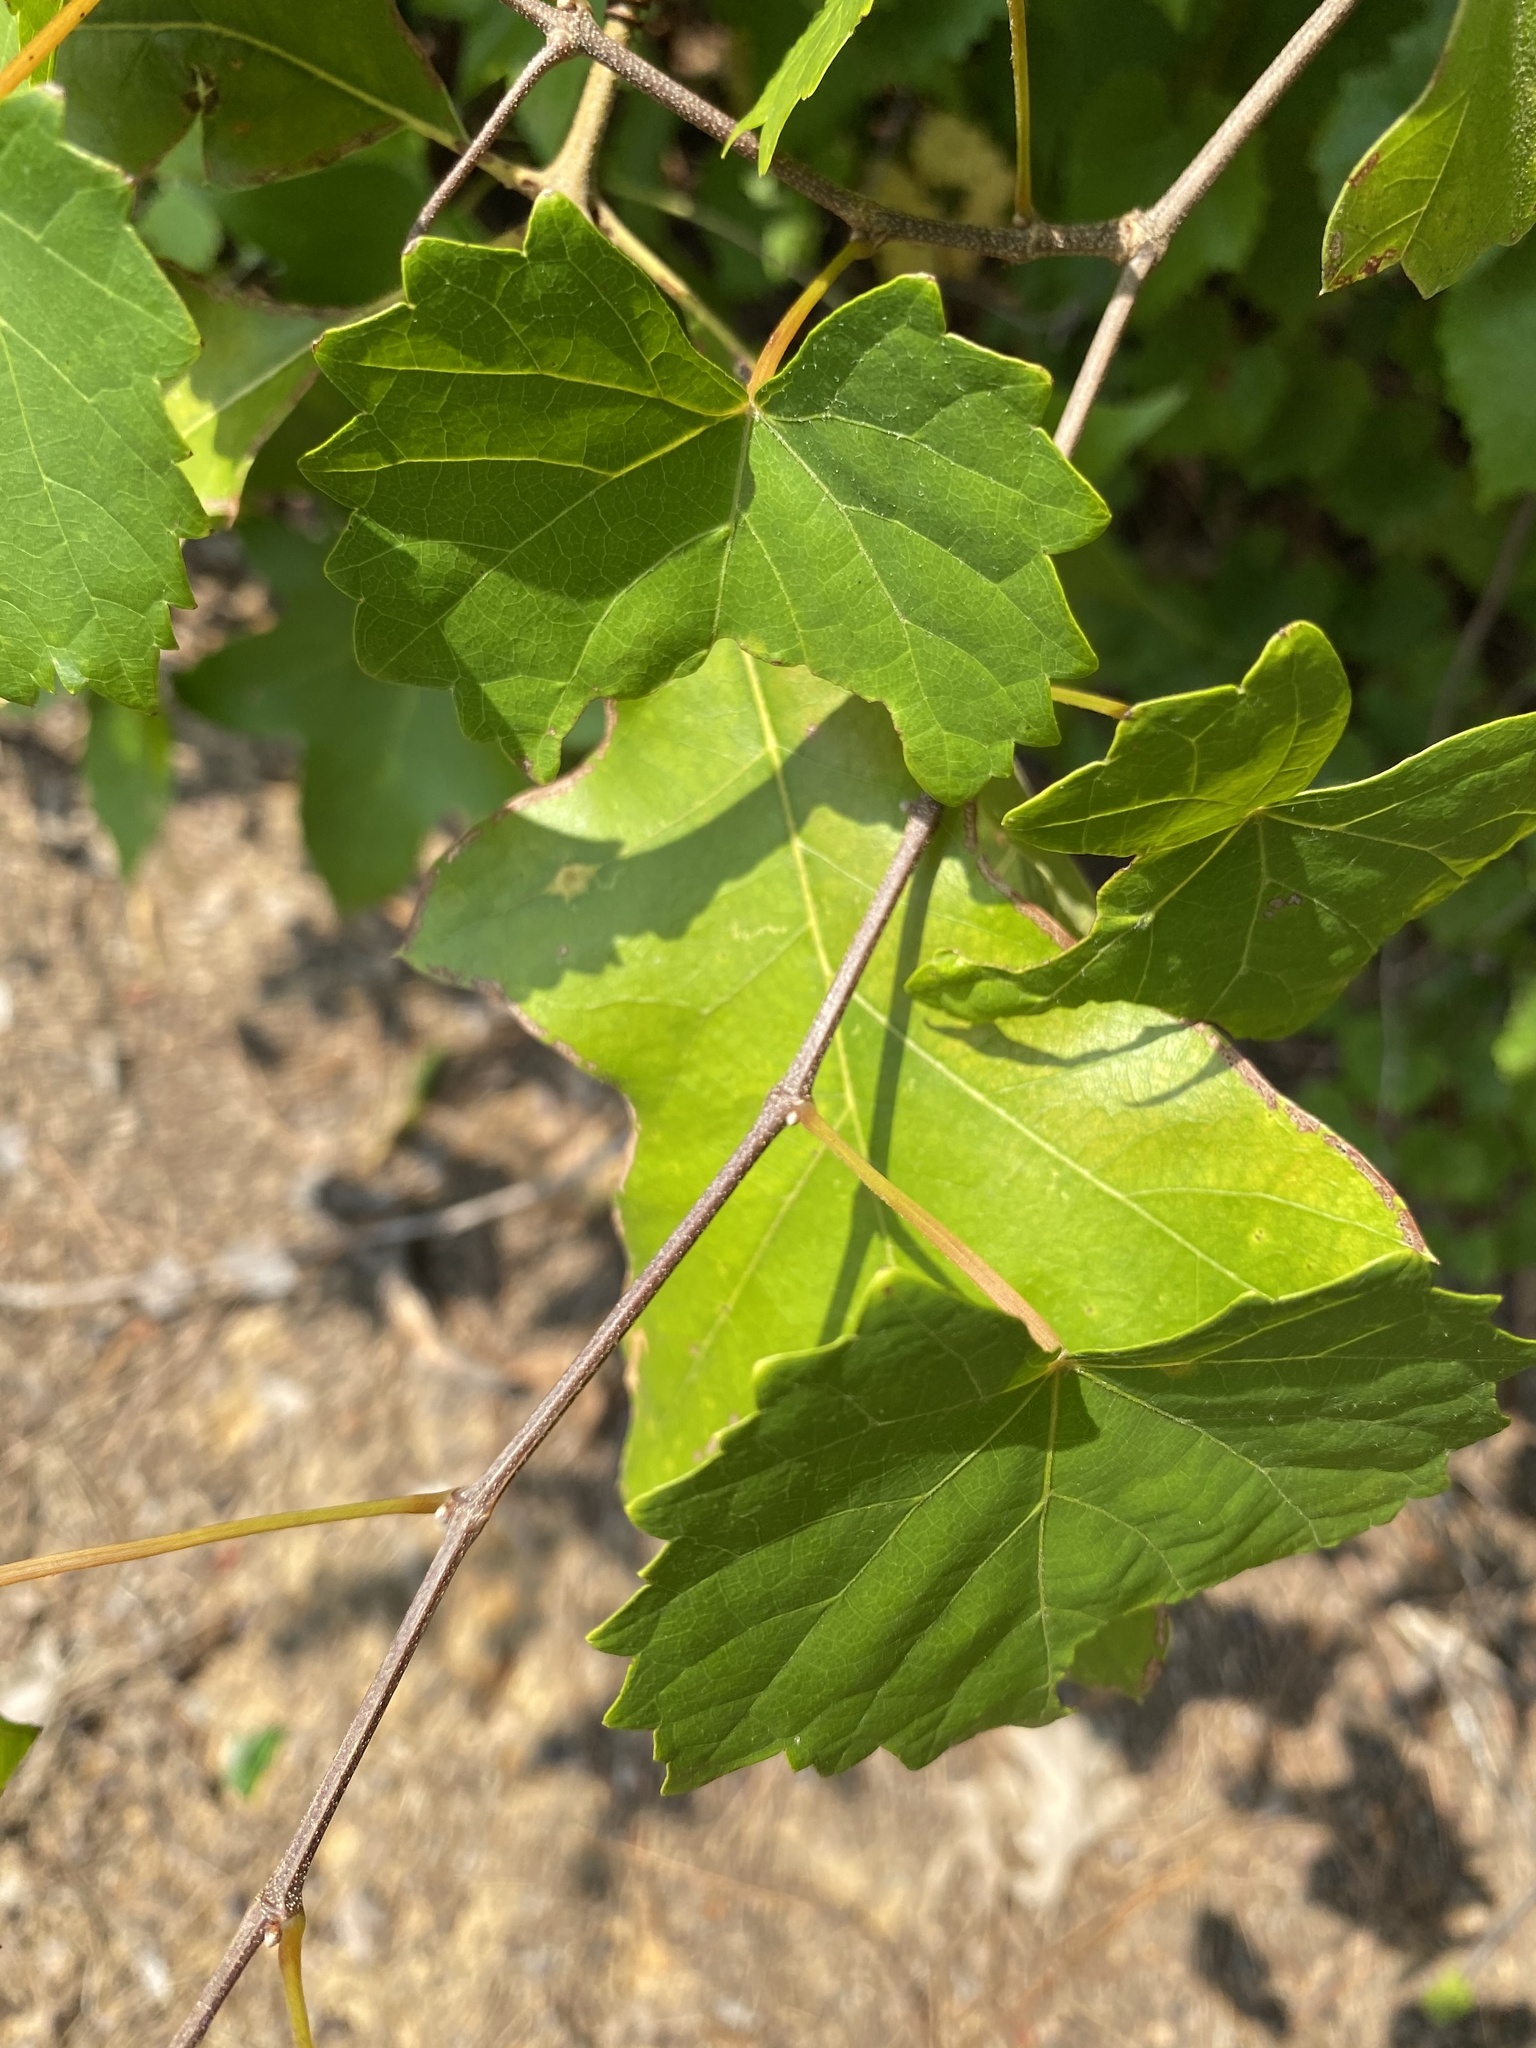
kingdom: Plantae
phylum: Tracheophyta
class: Magnoliopsida
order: Vitales
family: Vitaceae
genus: Vitis
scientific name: Vitis rotundifolia
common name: Muscadine grape
